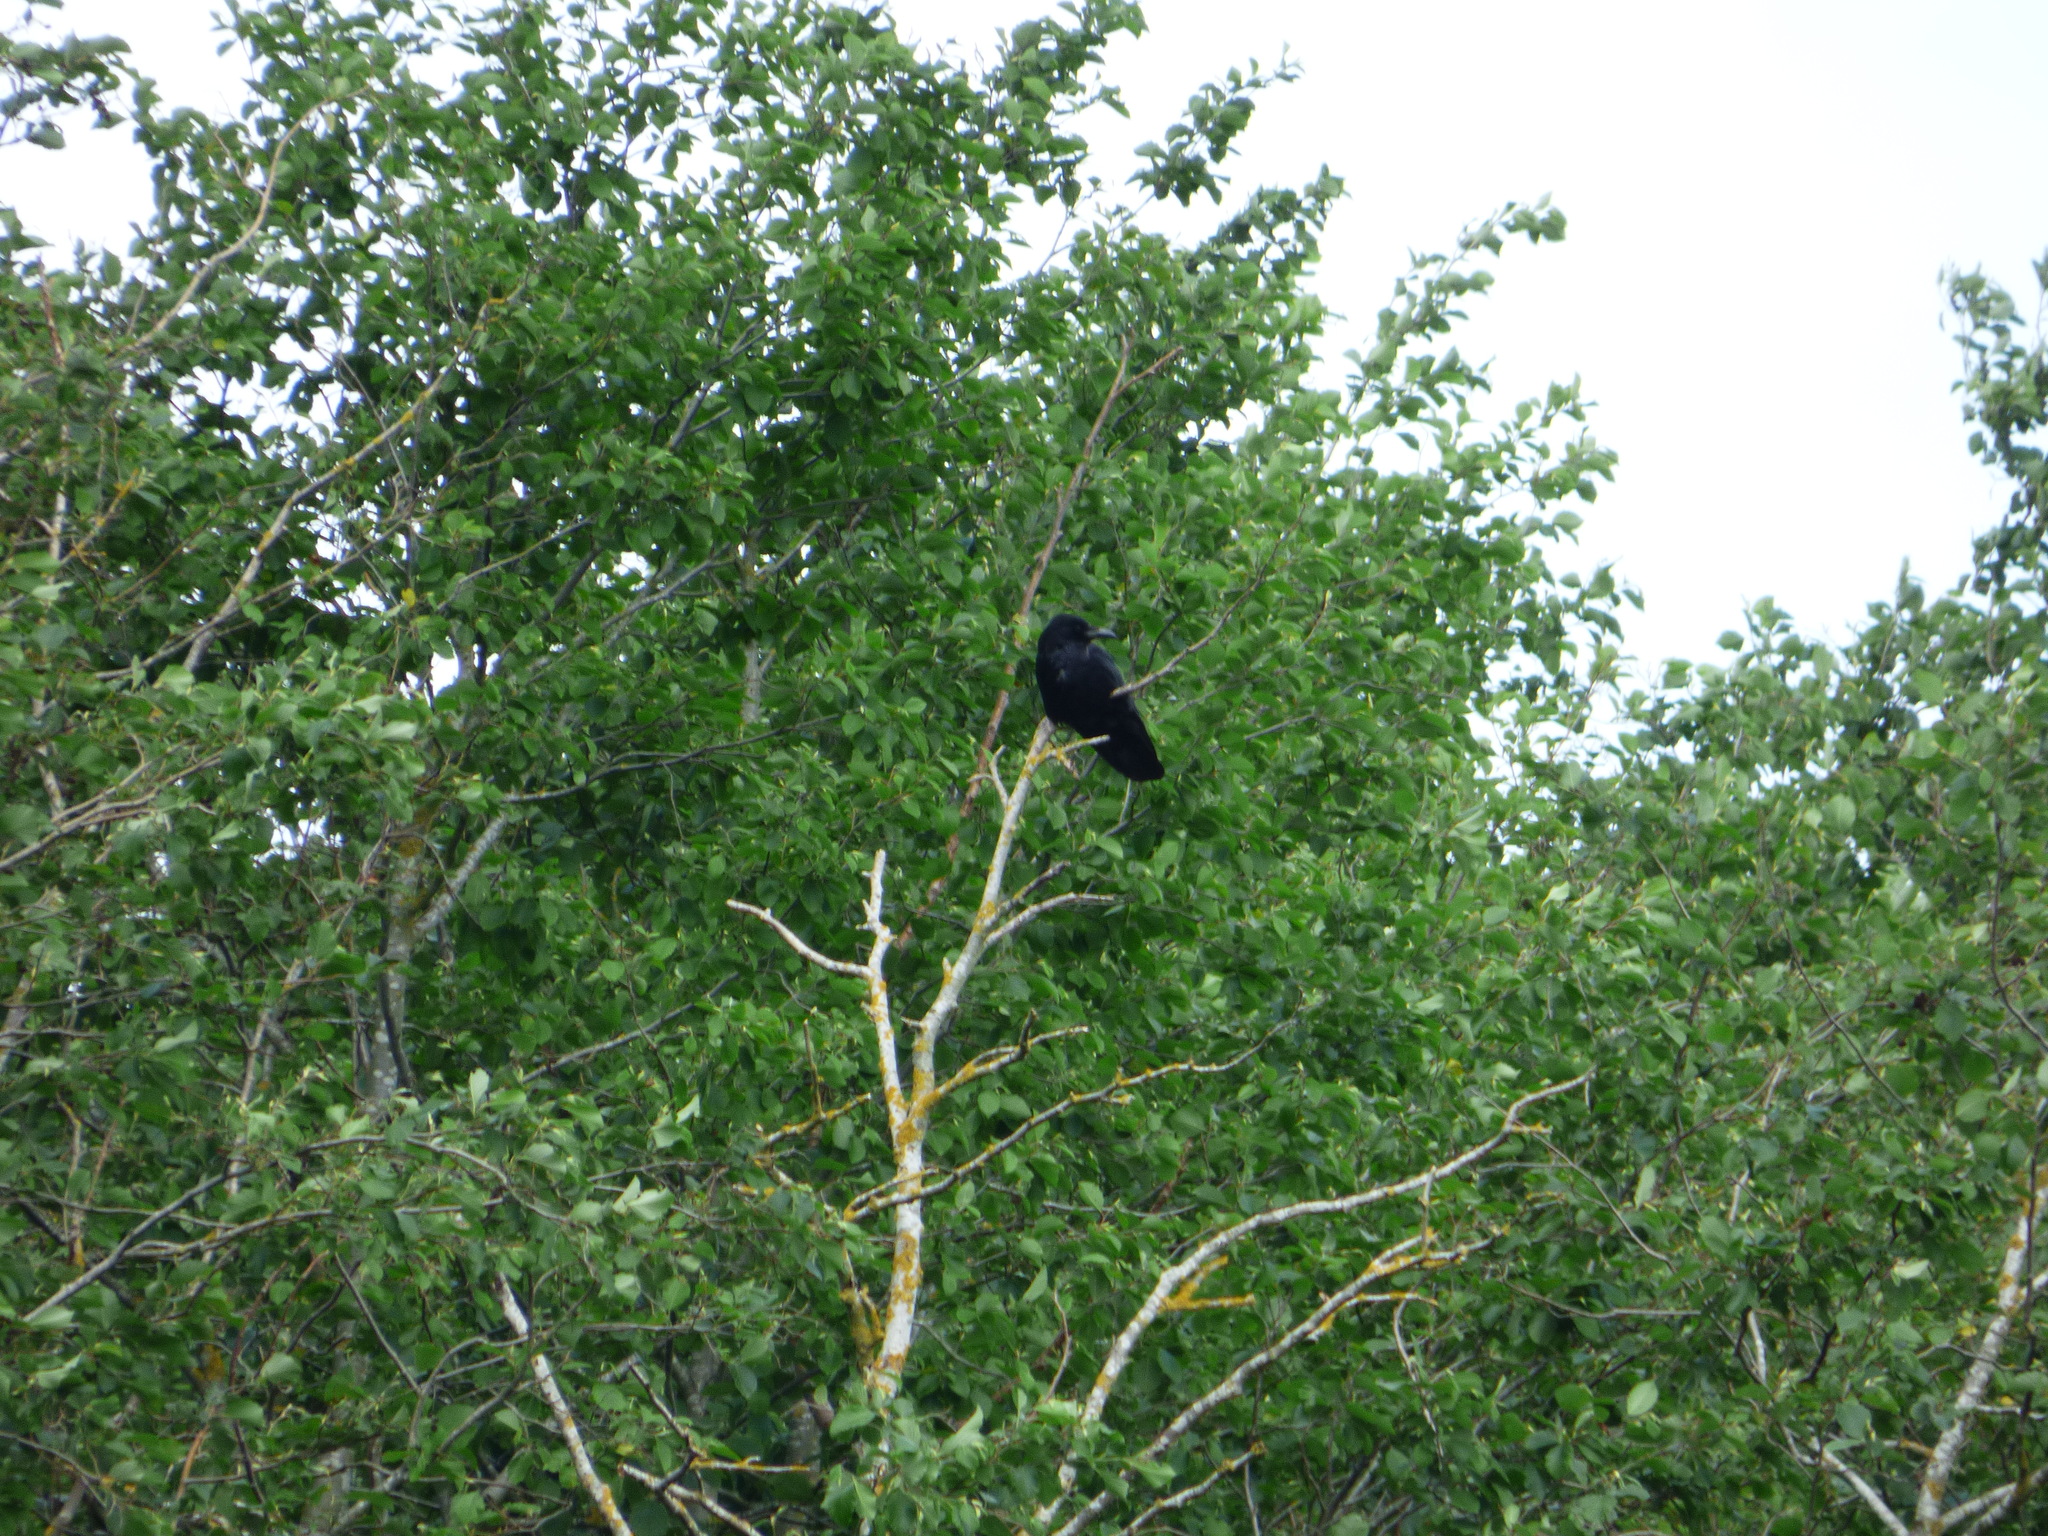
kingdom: Animalia
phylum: Chordata
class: Aves
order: Passeriformes
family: Corvidae
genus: Corvus
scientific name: Corvus corone
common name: Carrion crow
